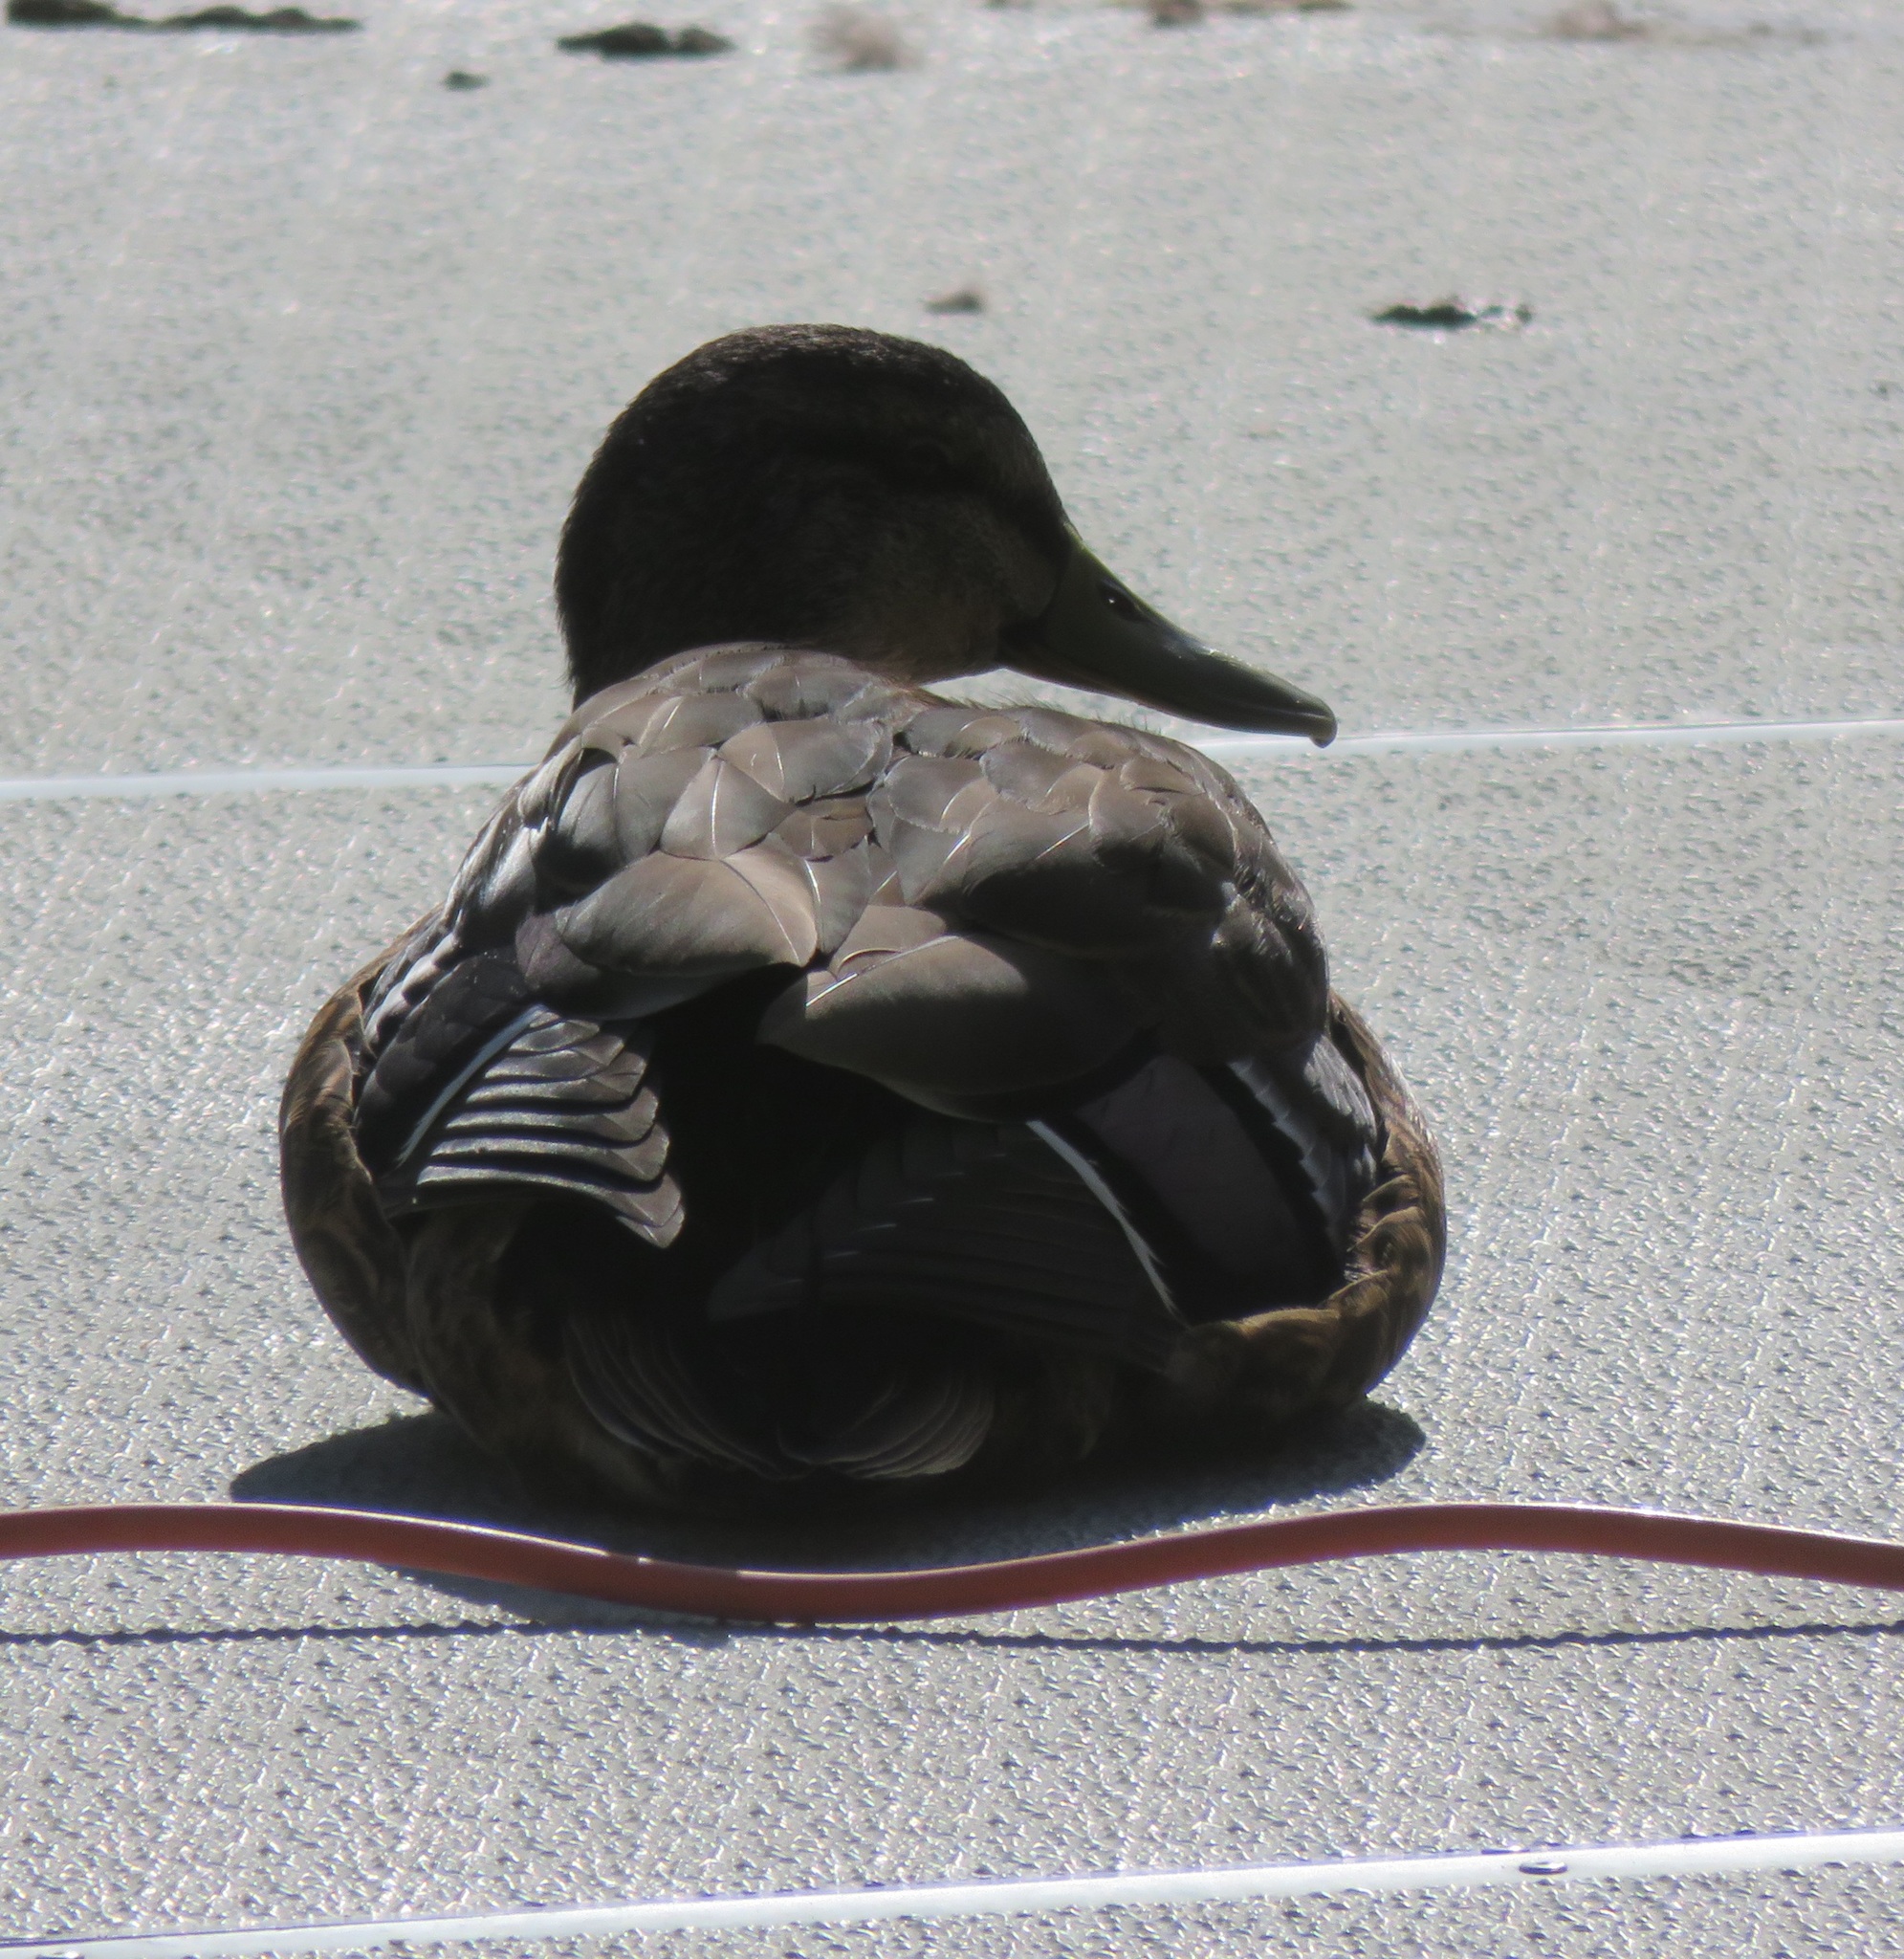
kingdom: Animalia
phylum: Chordata
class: Aves
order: Anseriformes
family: Anatidae
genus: Anas
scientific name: Anas
